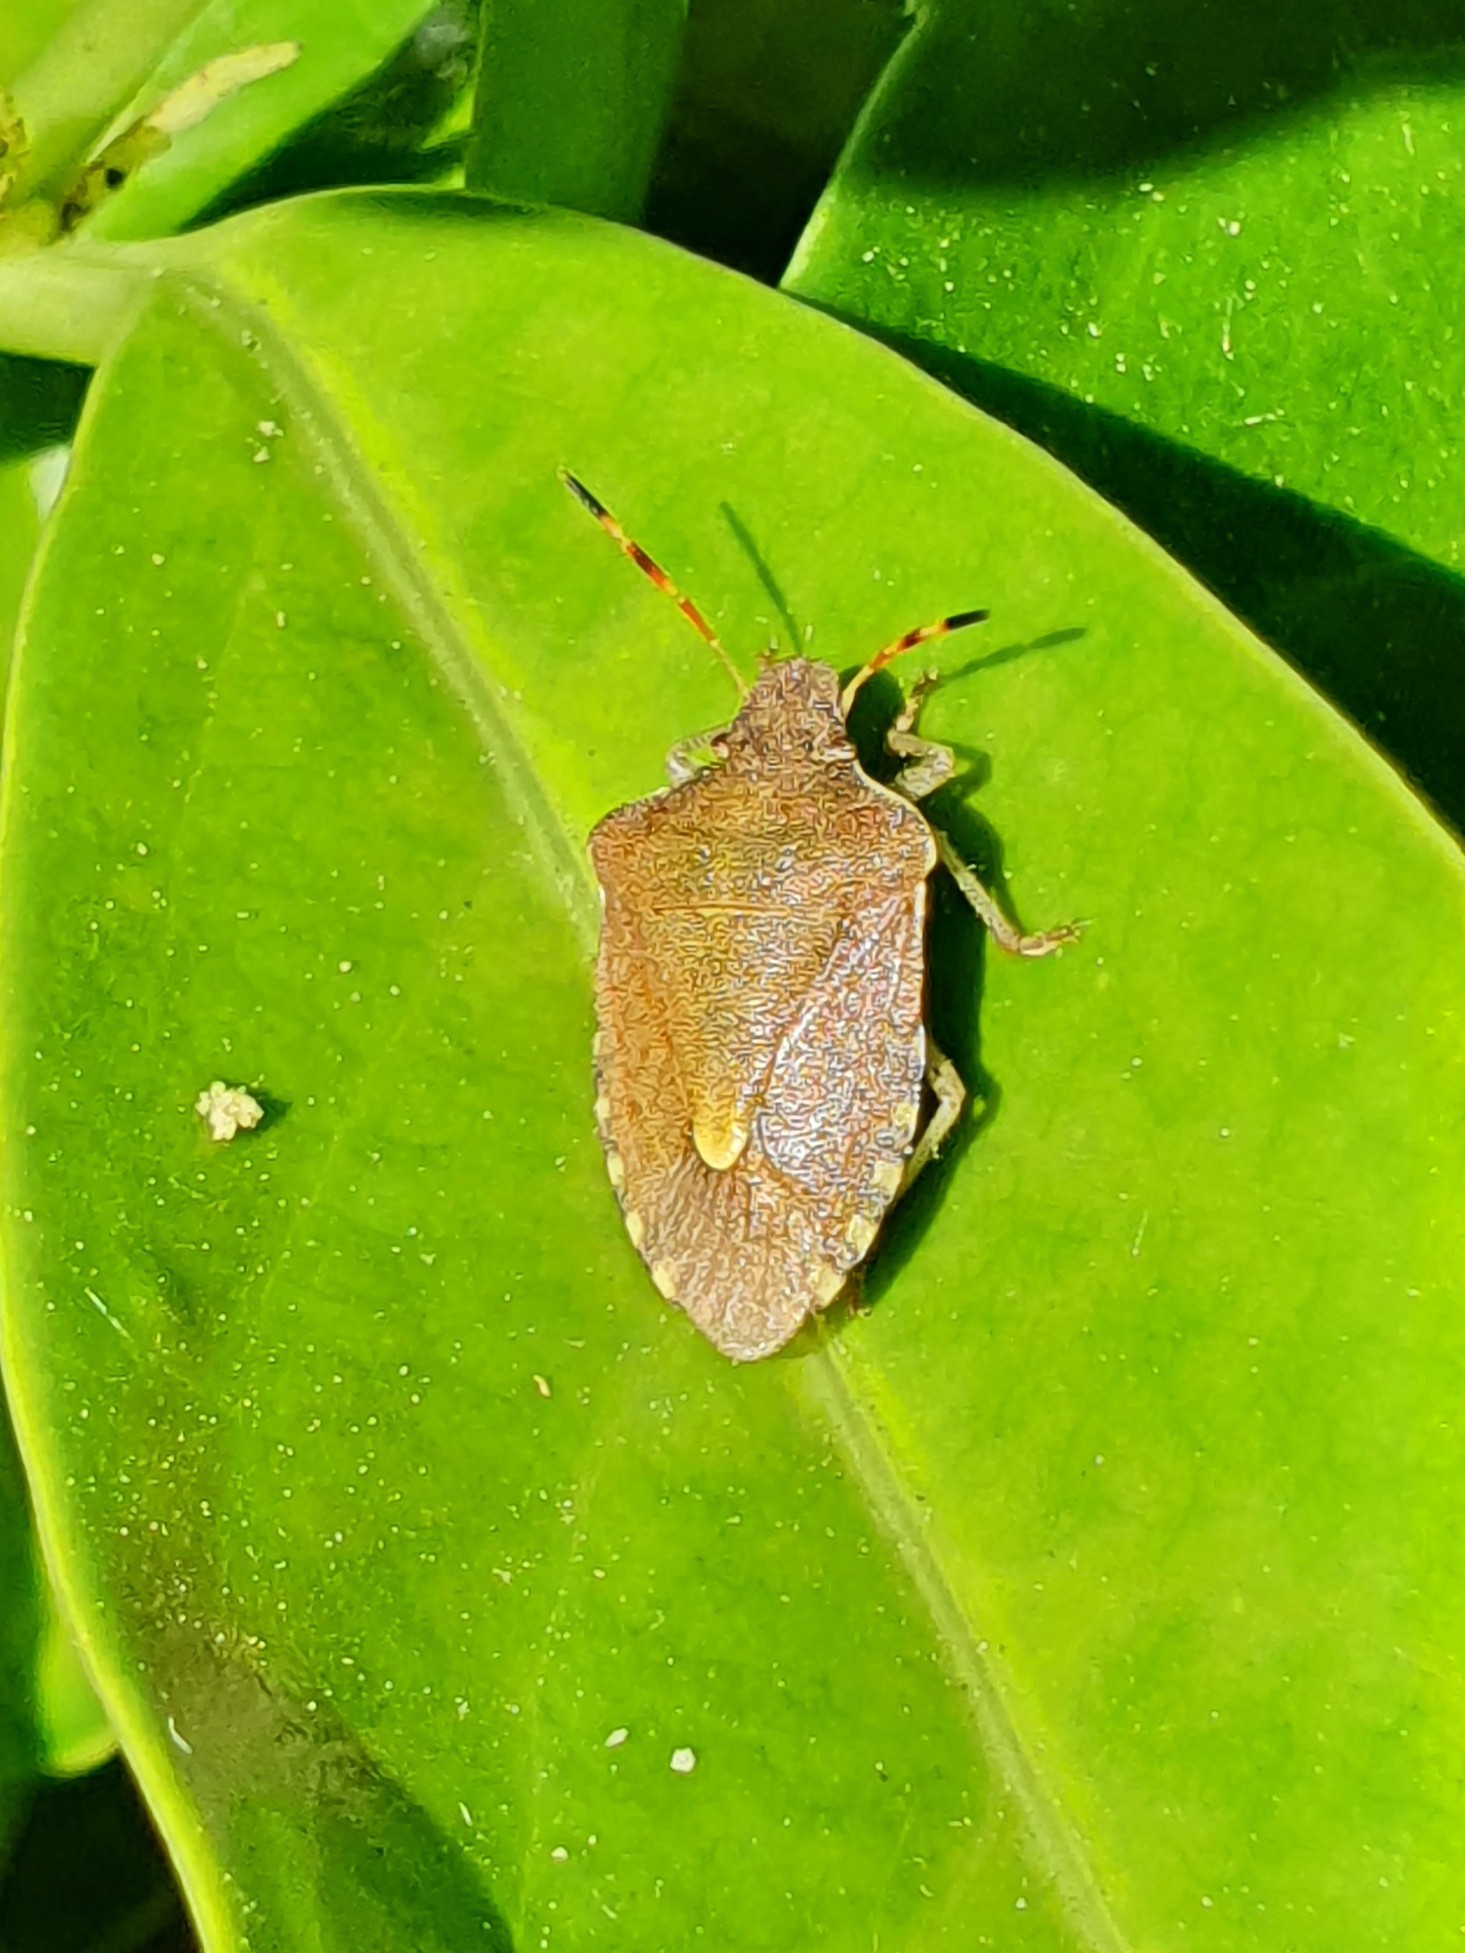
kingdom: Animalia
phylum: Arthropoda
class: Insecta
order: Hemiptera
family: Pentatomidae
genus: Holcostethus
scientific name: Holcostethus strictus
